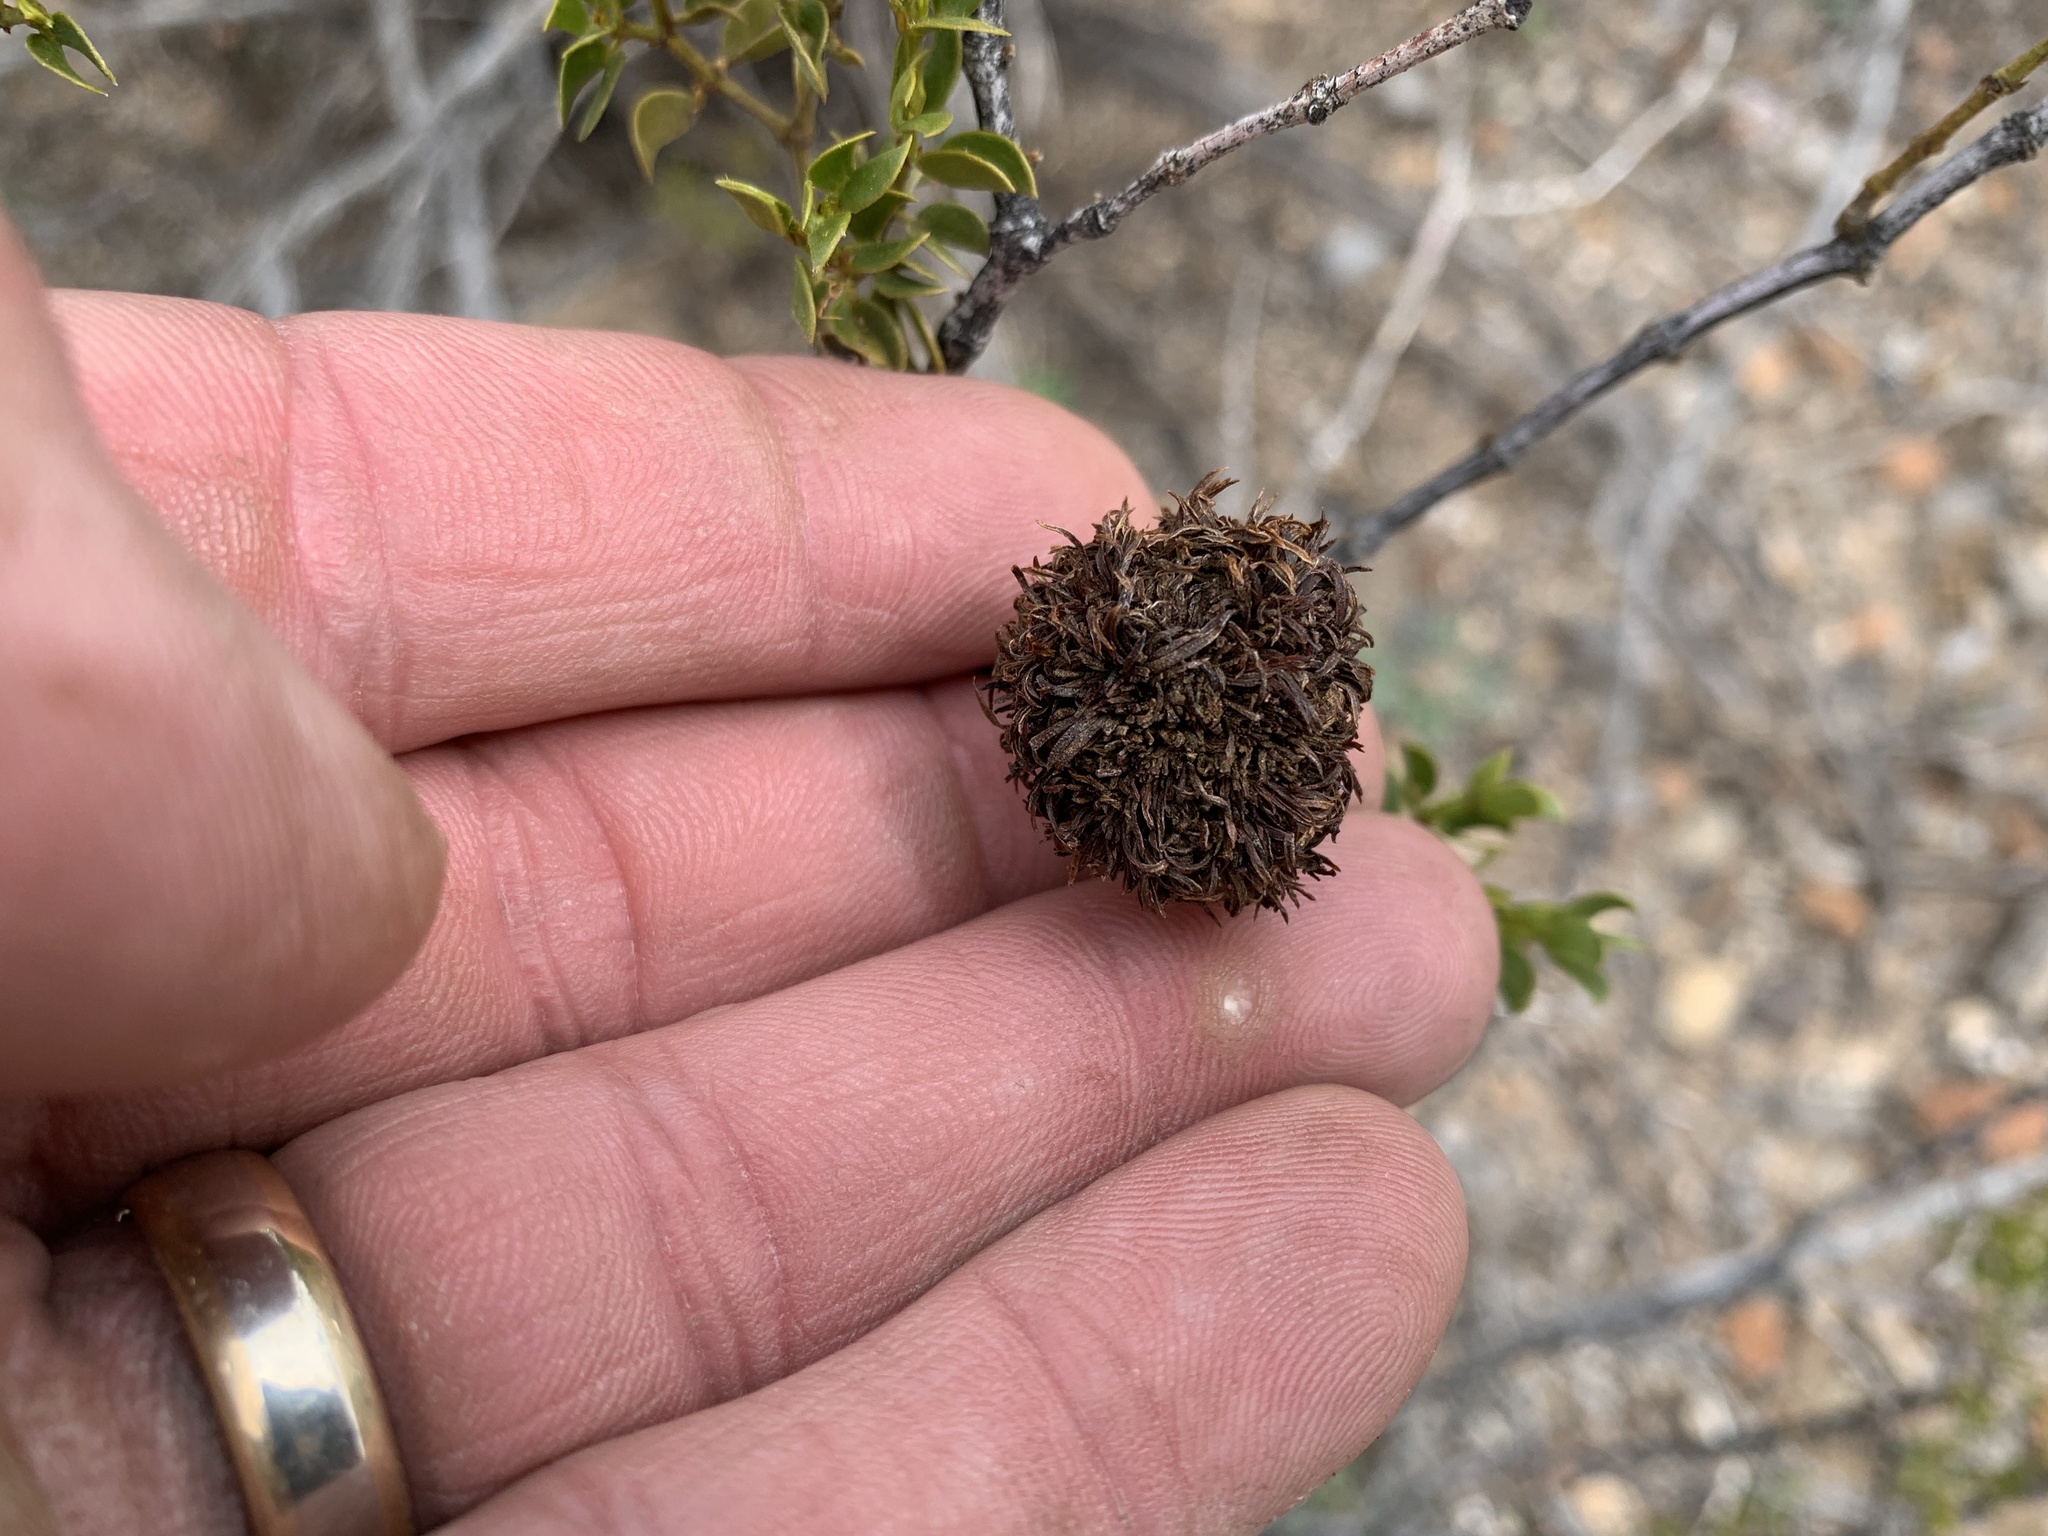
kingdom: Animalia
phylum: Arthropoda
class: Insecta
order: Diptera
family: Cecidomyiidae
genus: Asphondylia
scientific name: Asphondylia auripila
